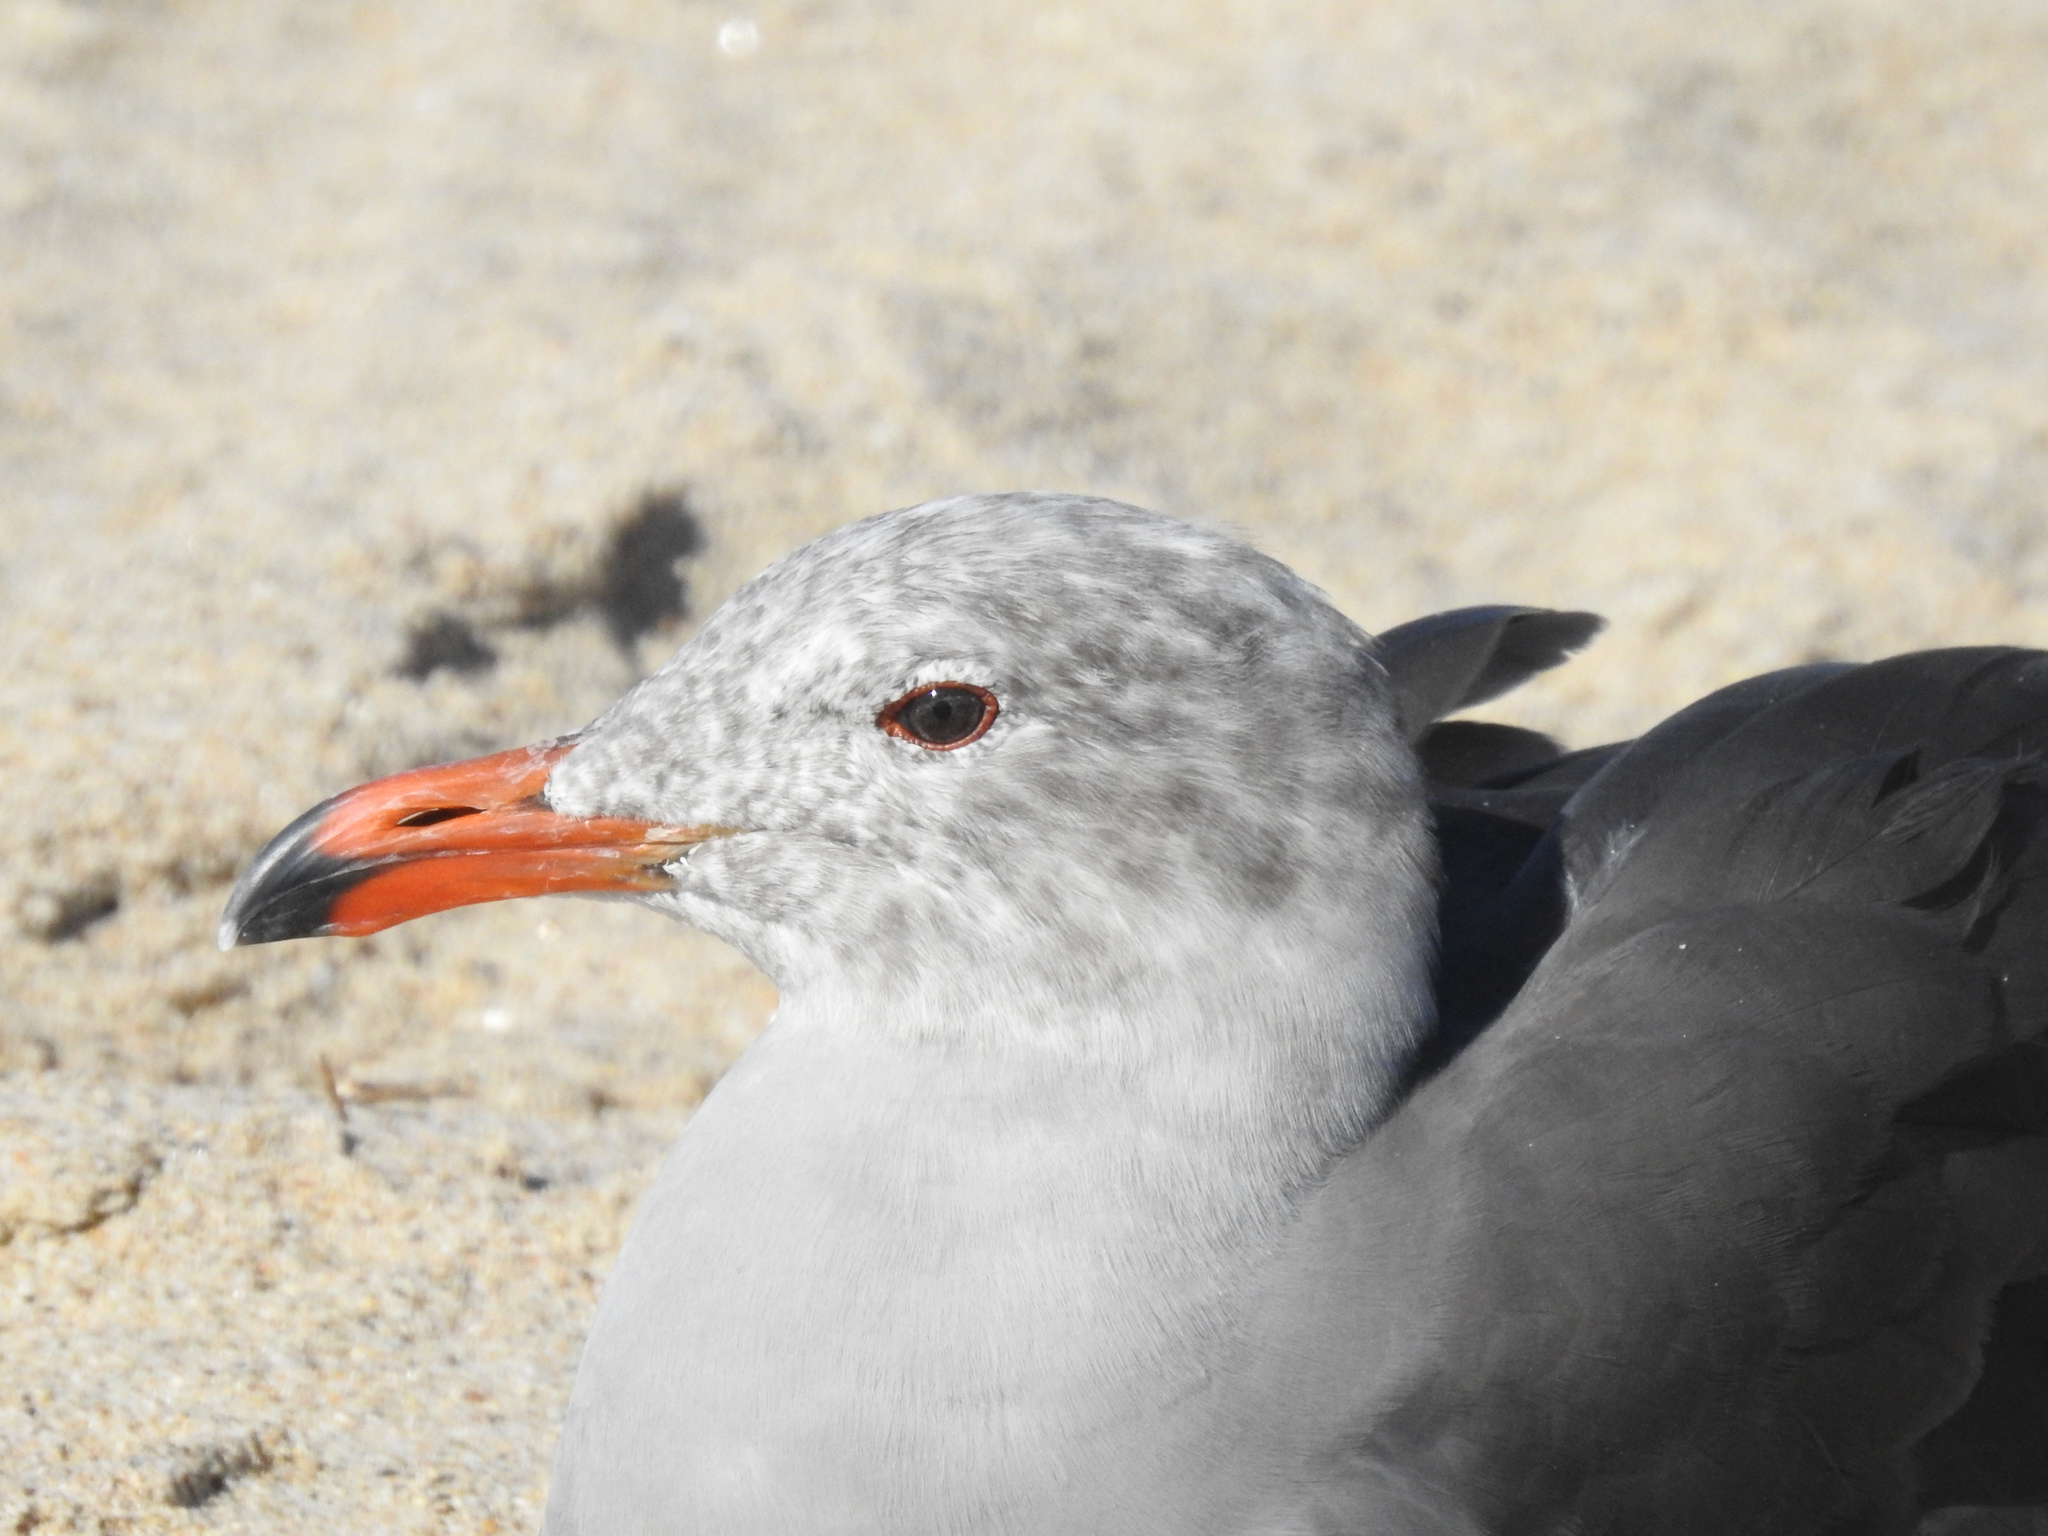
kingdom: Animalia
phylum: Chordata
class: Aves
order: Charadriiformes
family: Laridae
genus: Larus
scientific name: Larus heermanni
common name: Heermann's gull
